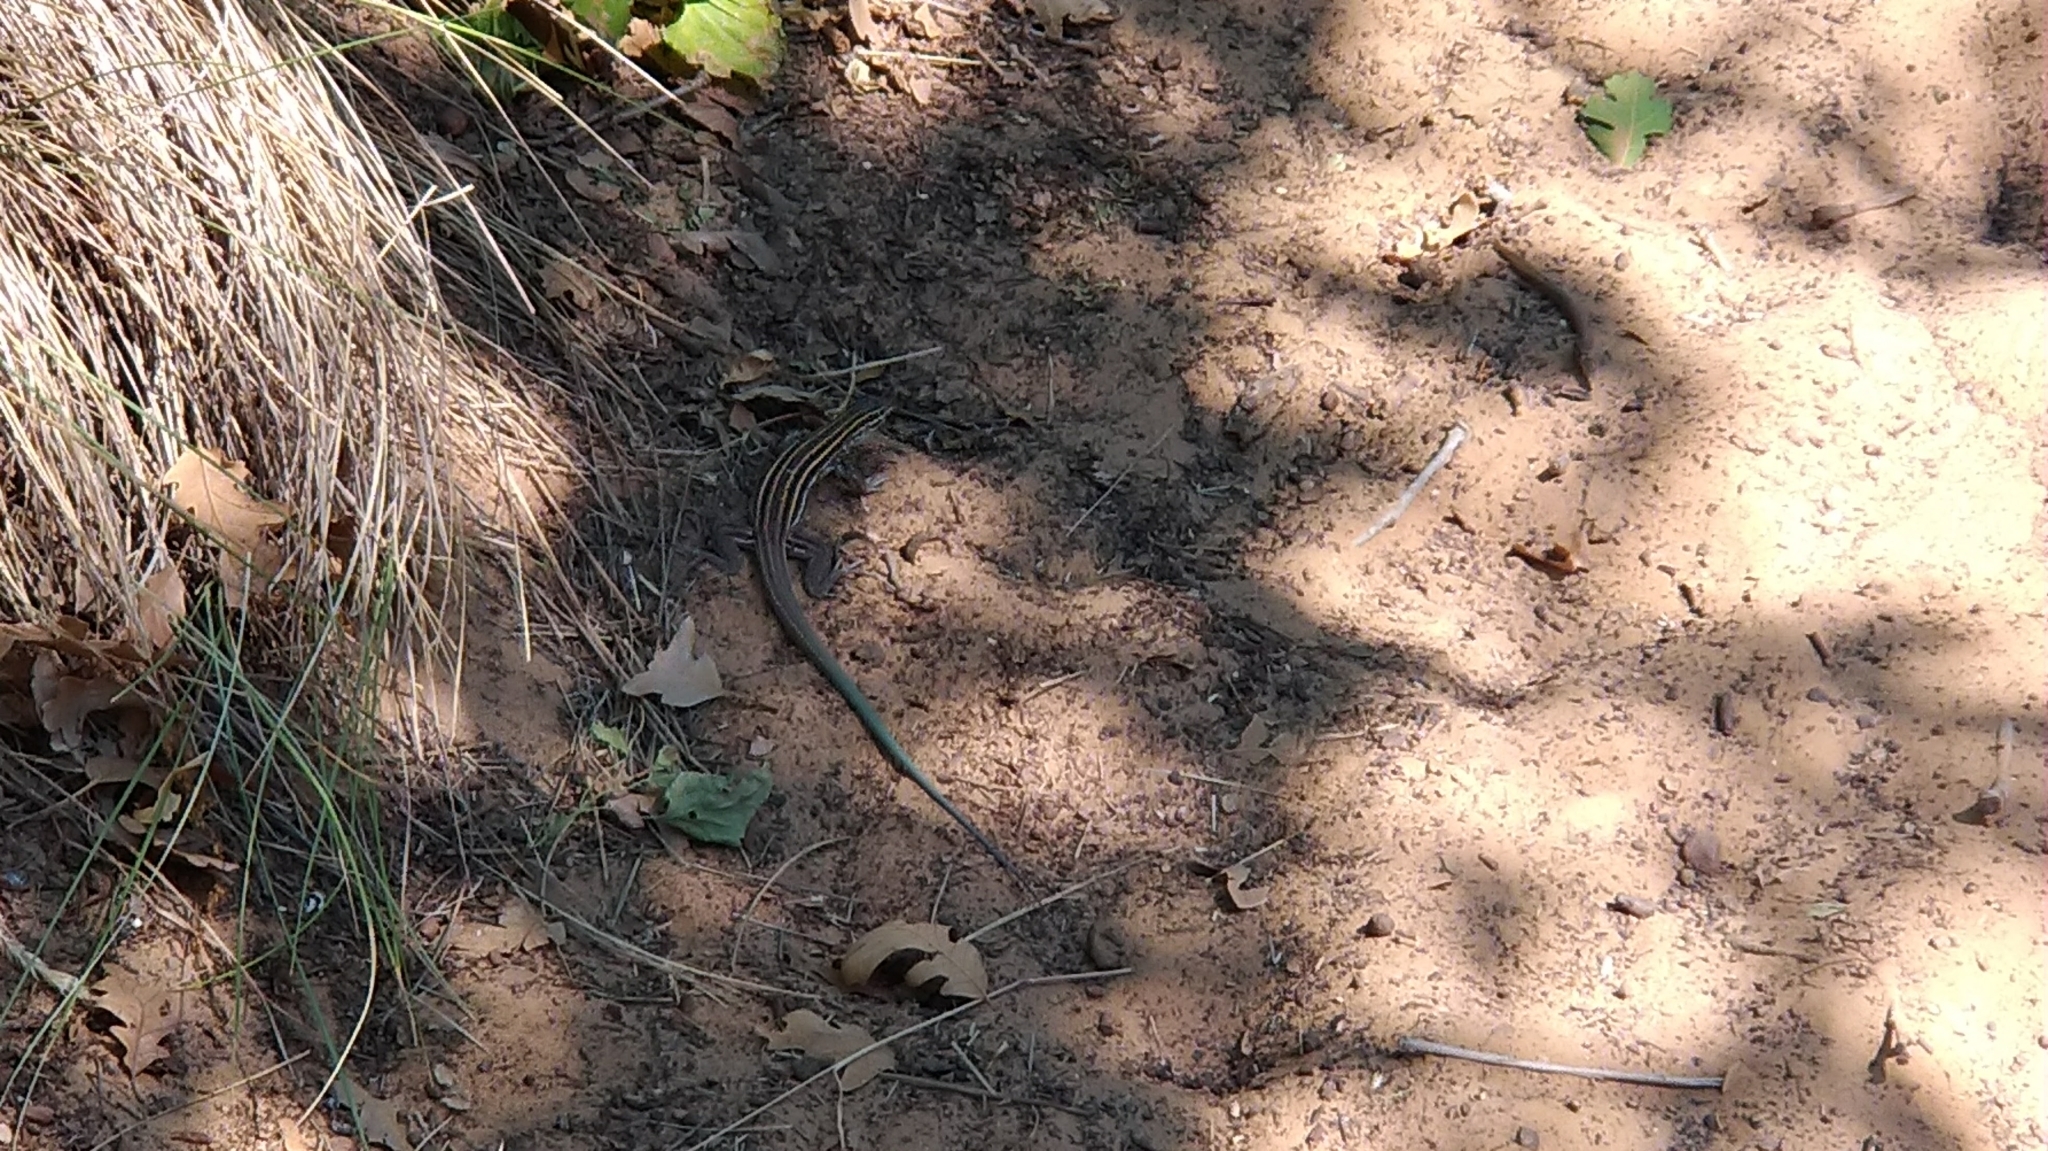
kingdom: Animalia
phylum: Chordata
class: Squamata
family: Teiidae
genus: Aspidoscelis
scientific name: Aspidoscelis velox
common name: Plateau striped whiptail
